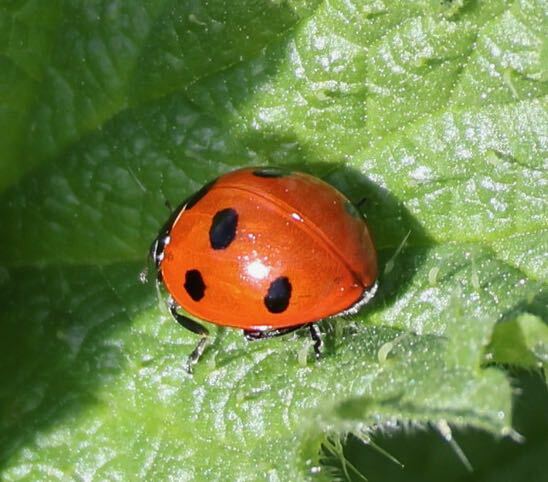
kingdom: Animalia
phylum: Arthropoda
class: Insecta
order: Coleoptera
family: Coccinellidae
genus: Coccinella
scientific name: Coccinella septempunctata
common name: Sevenspotted lady beetle
